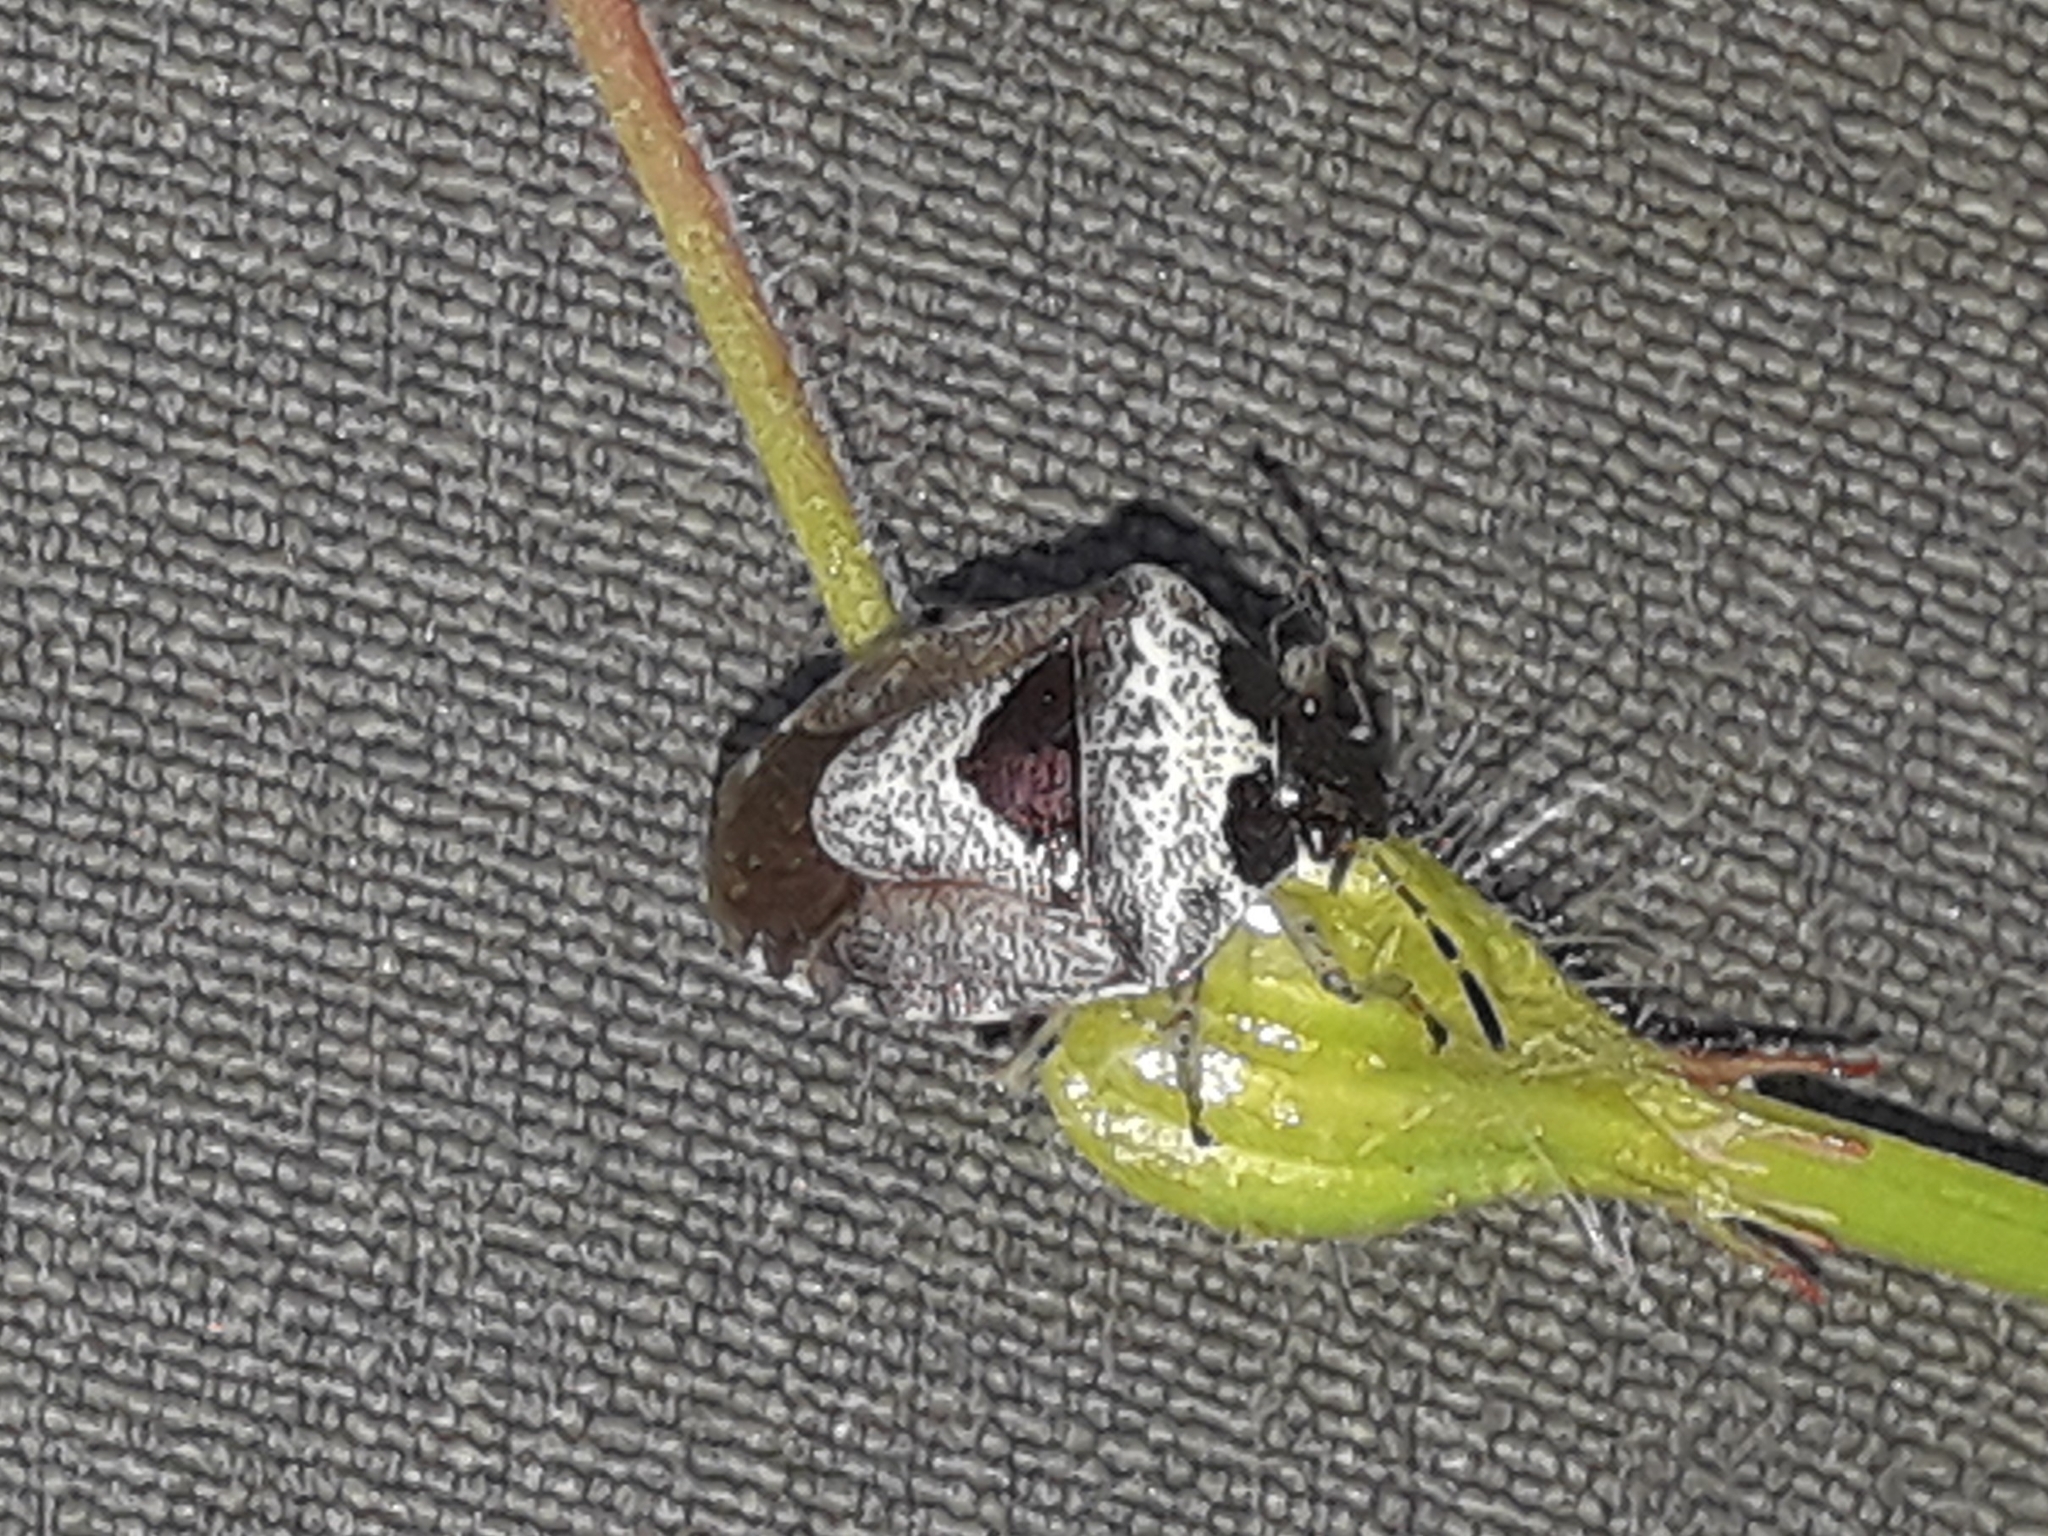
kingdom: Animalia
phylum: Arthropoda
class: Insecta
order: Hemiptera
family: Pentatomidae
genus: Eysarcoris
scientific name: Eysarcoris venustissimus
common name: Woundwort shieldbug
